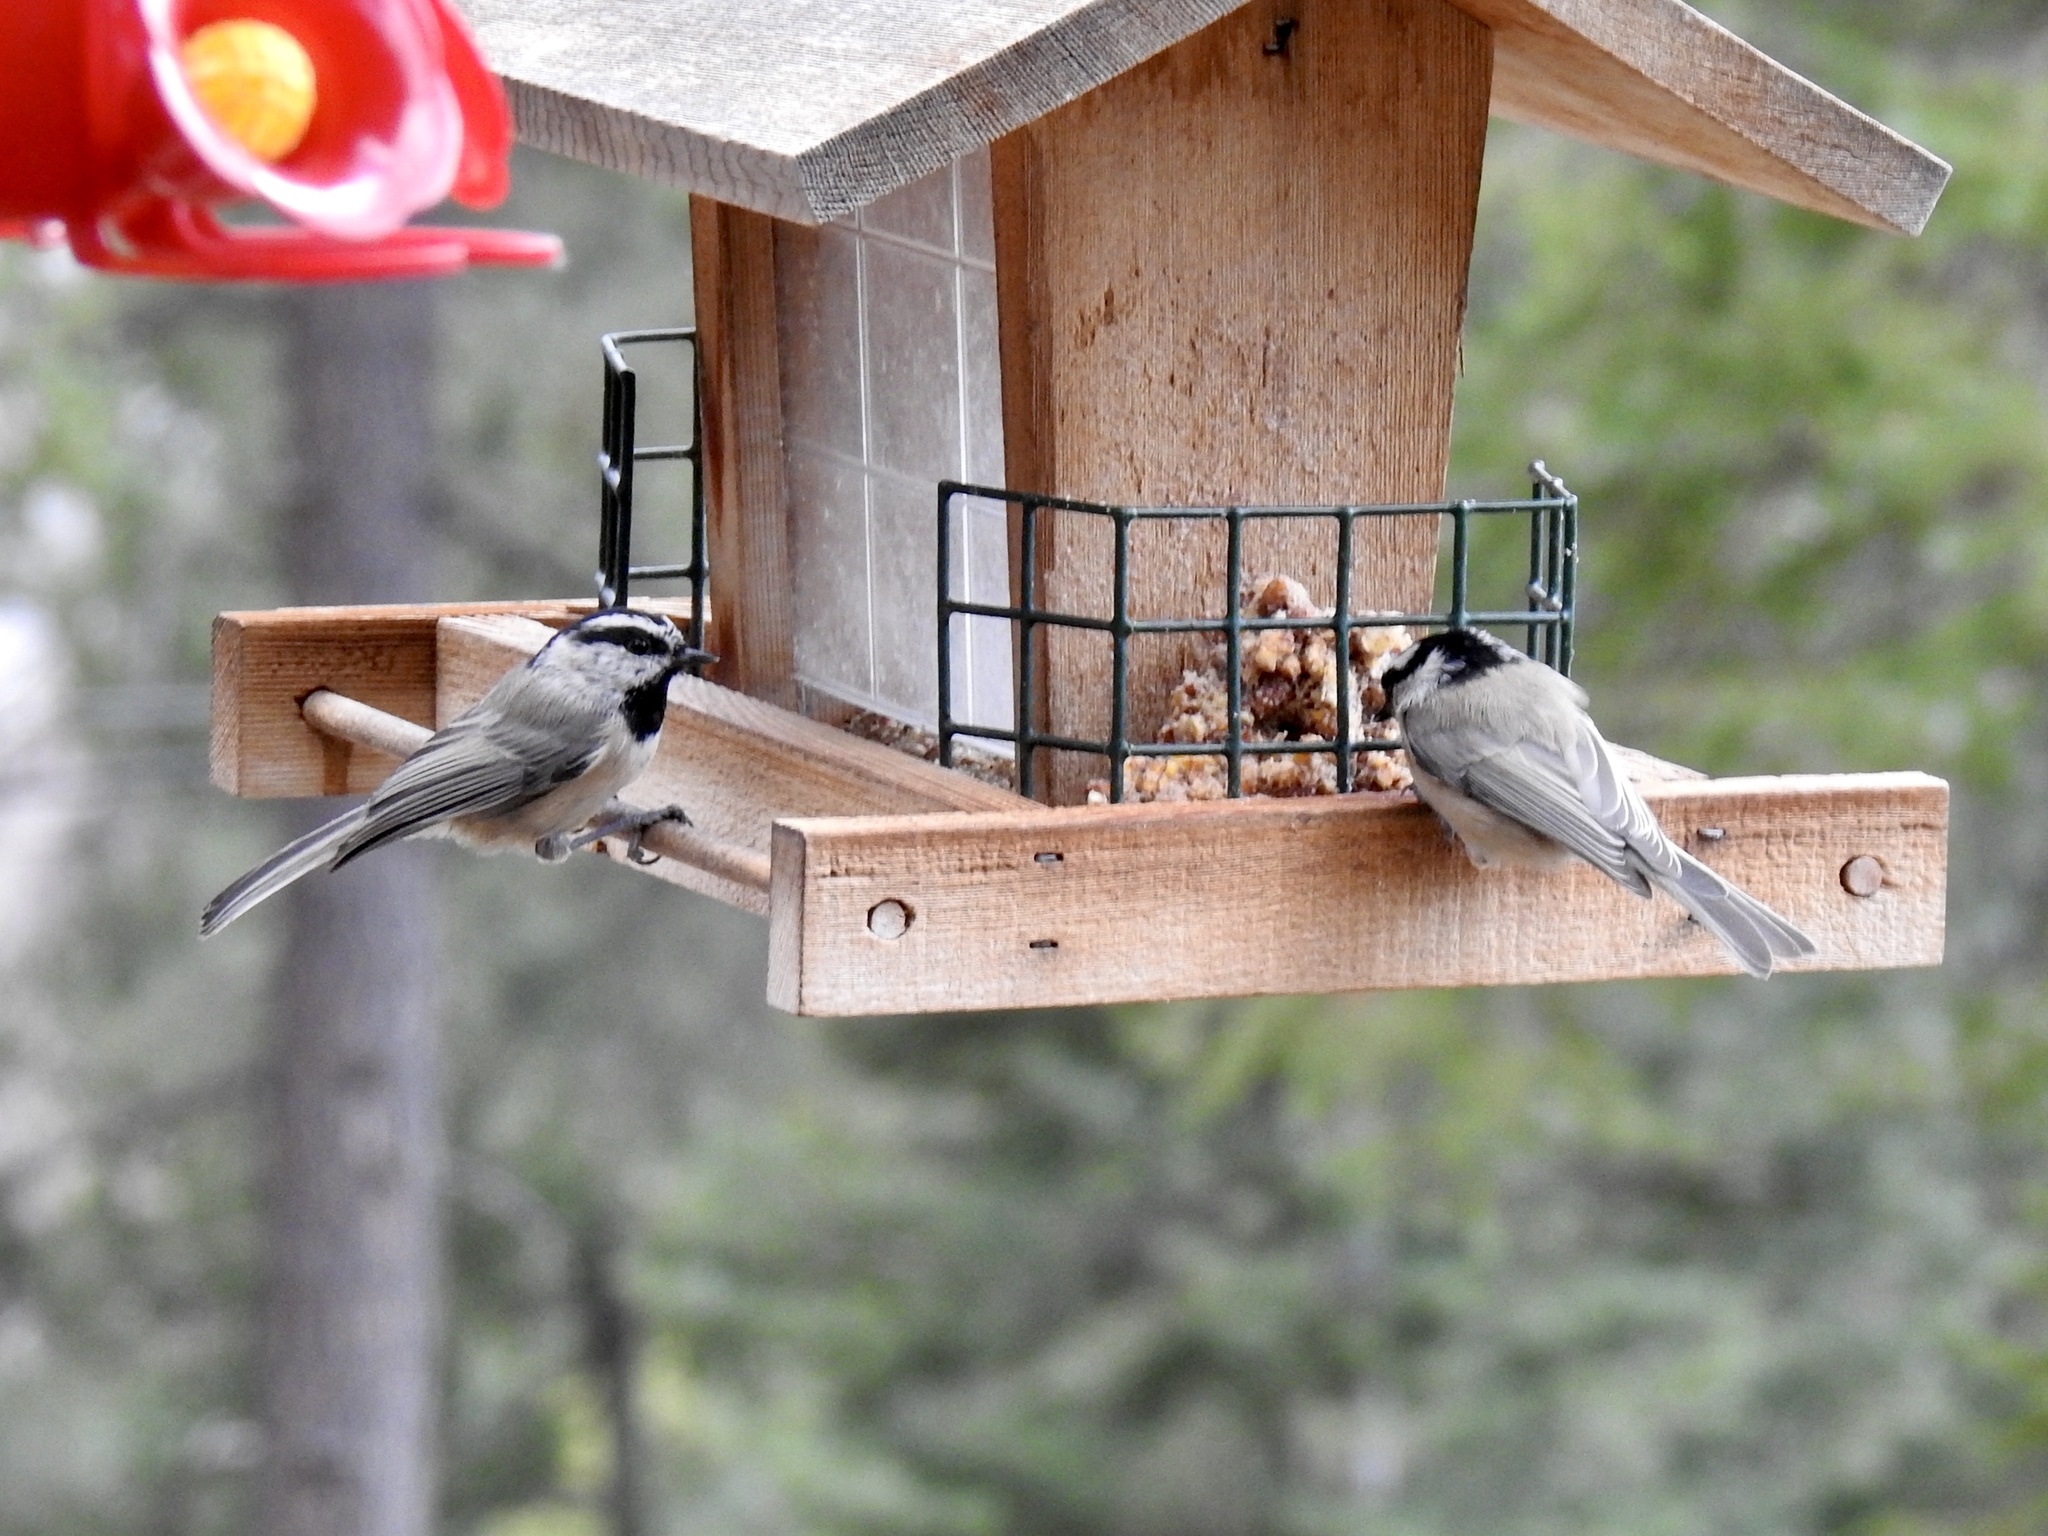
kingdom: Animalia
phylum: Chordata
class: Aves
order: Passeriformes
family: Paridae
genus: Poecile
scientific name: Poecile gambeli
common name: Mountain chickadee
